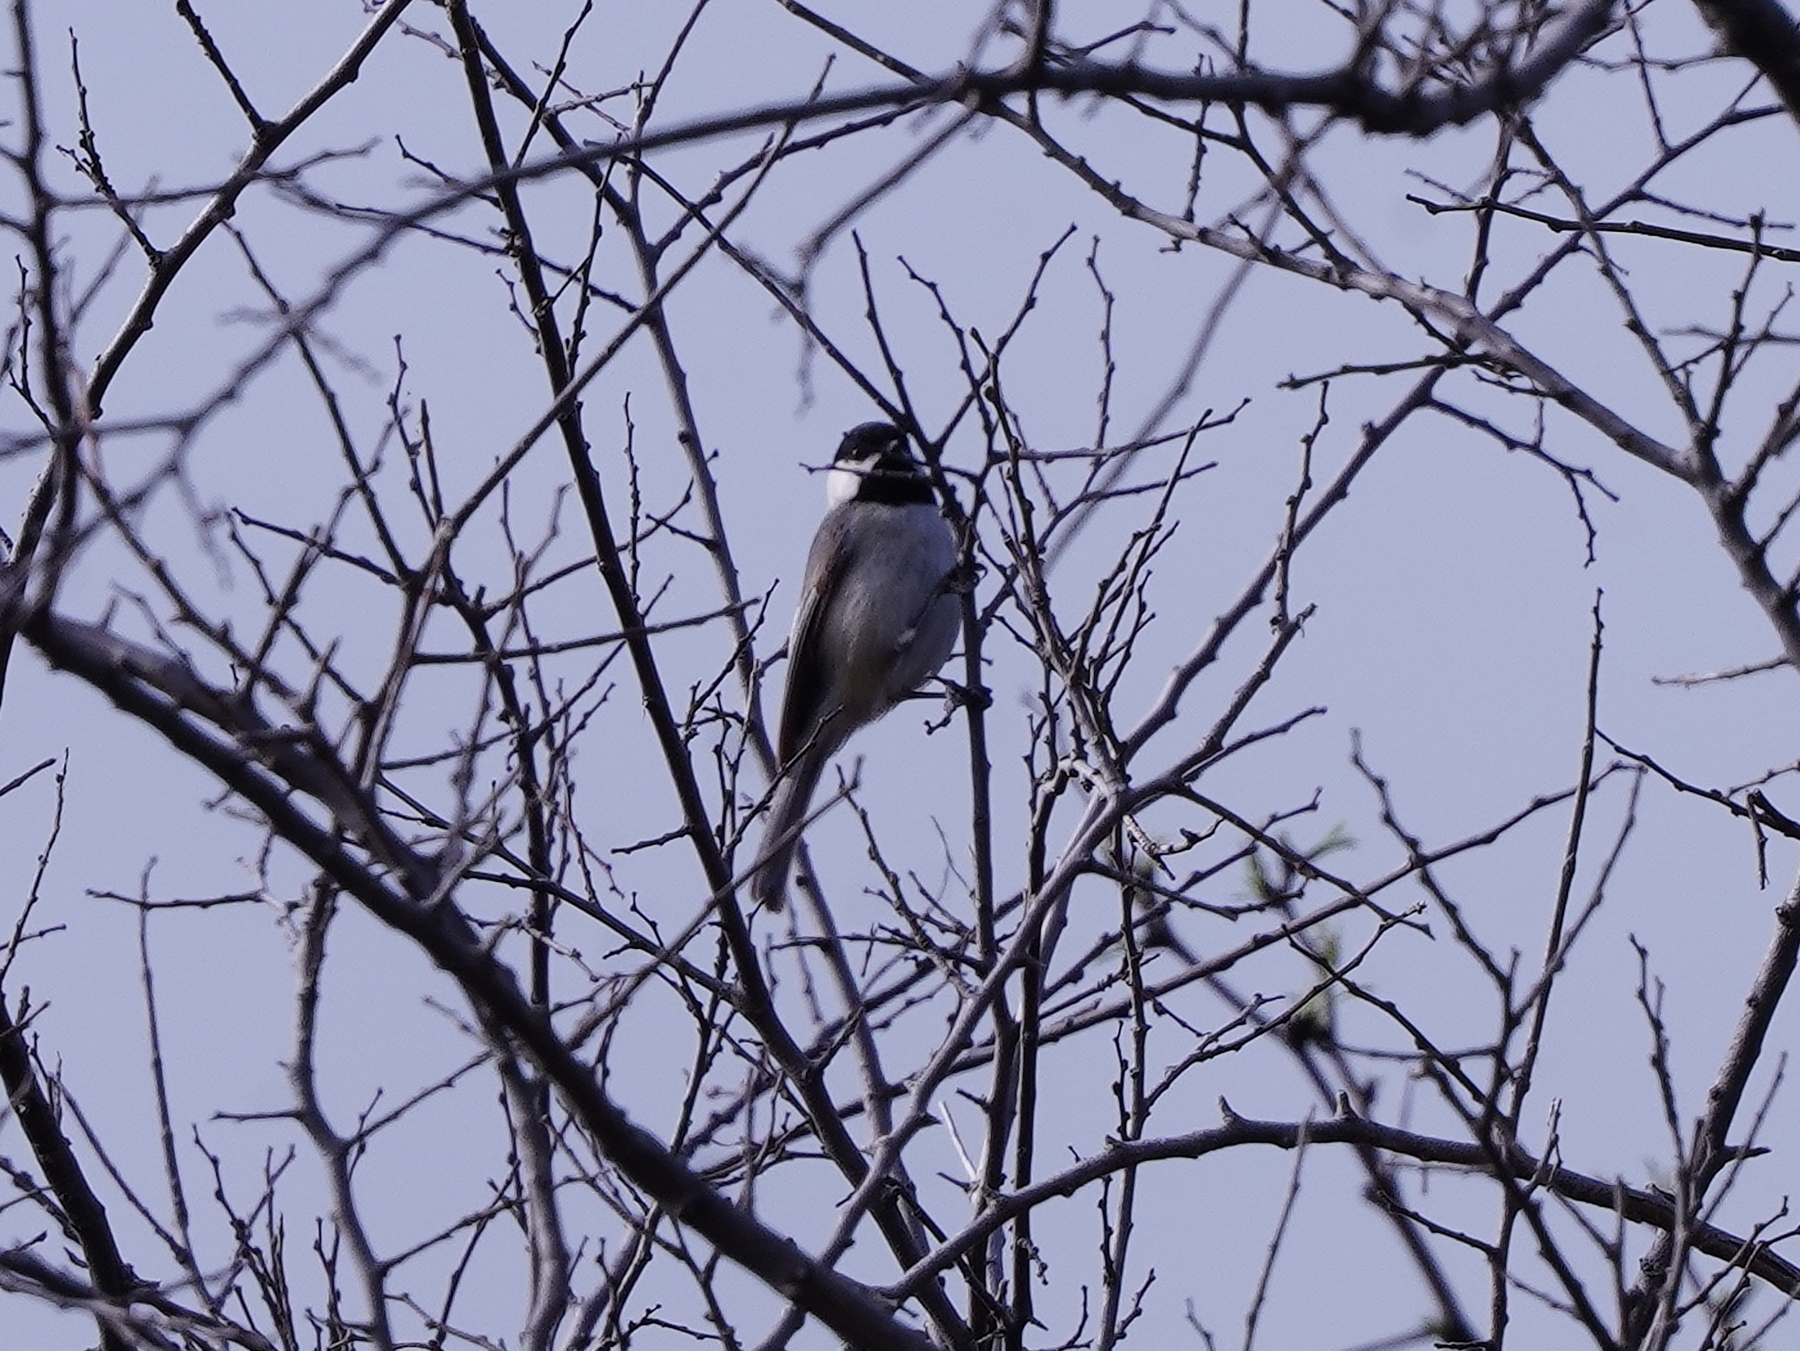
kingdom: Animalia
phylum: Chordata
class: Aves
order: Passeriformes
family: Paridae
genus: Poecile
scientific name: Poecile carolinensis
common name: Carolina chickadee
